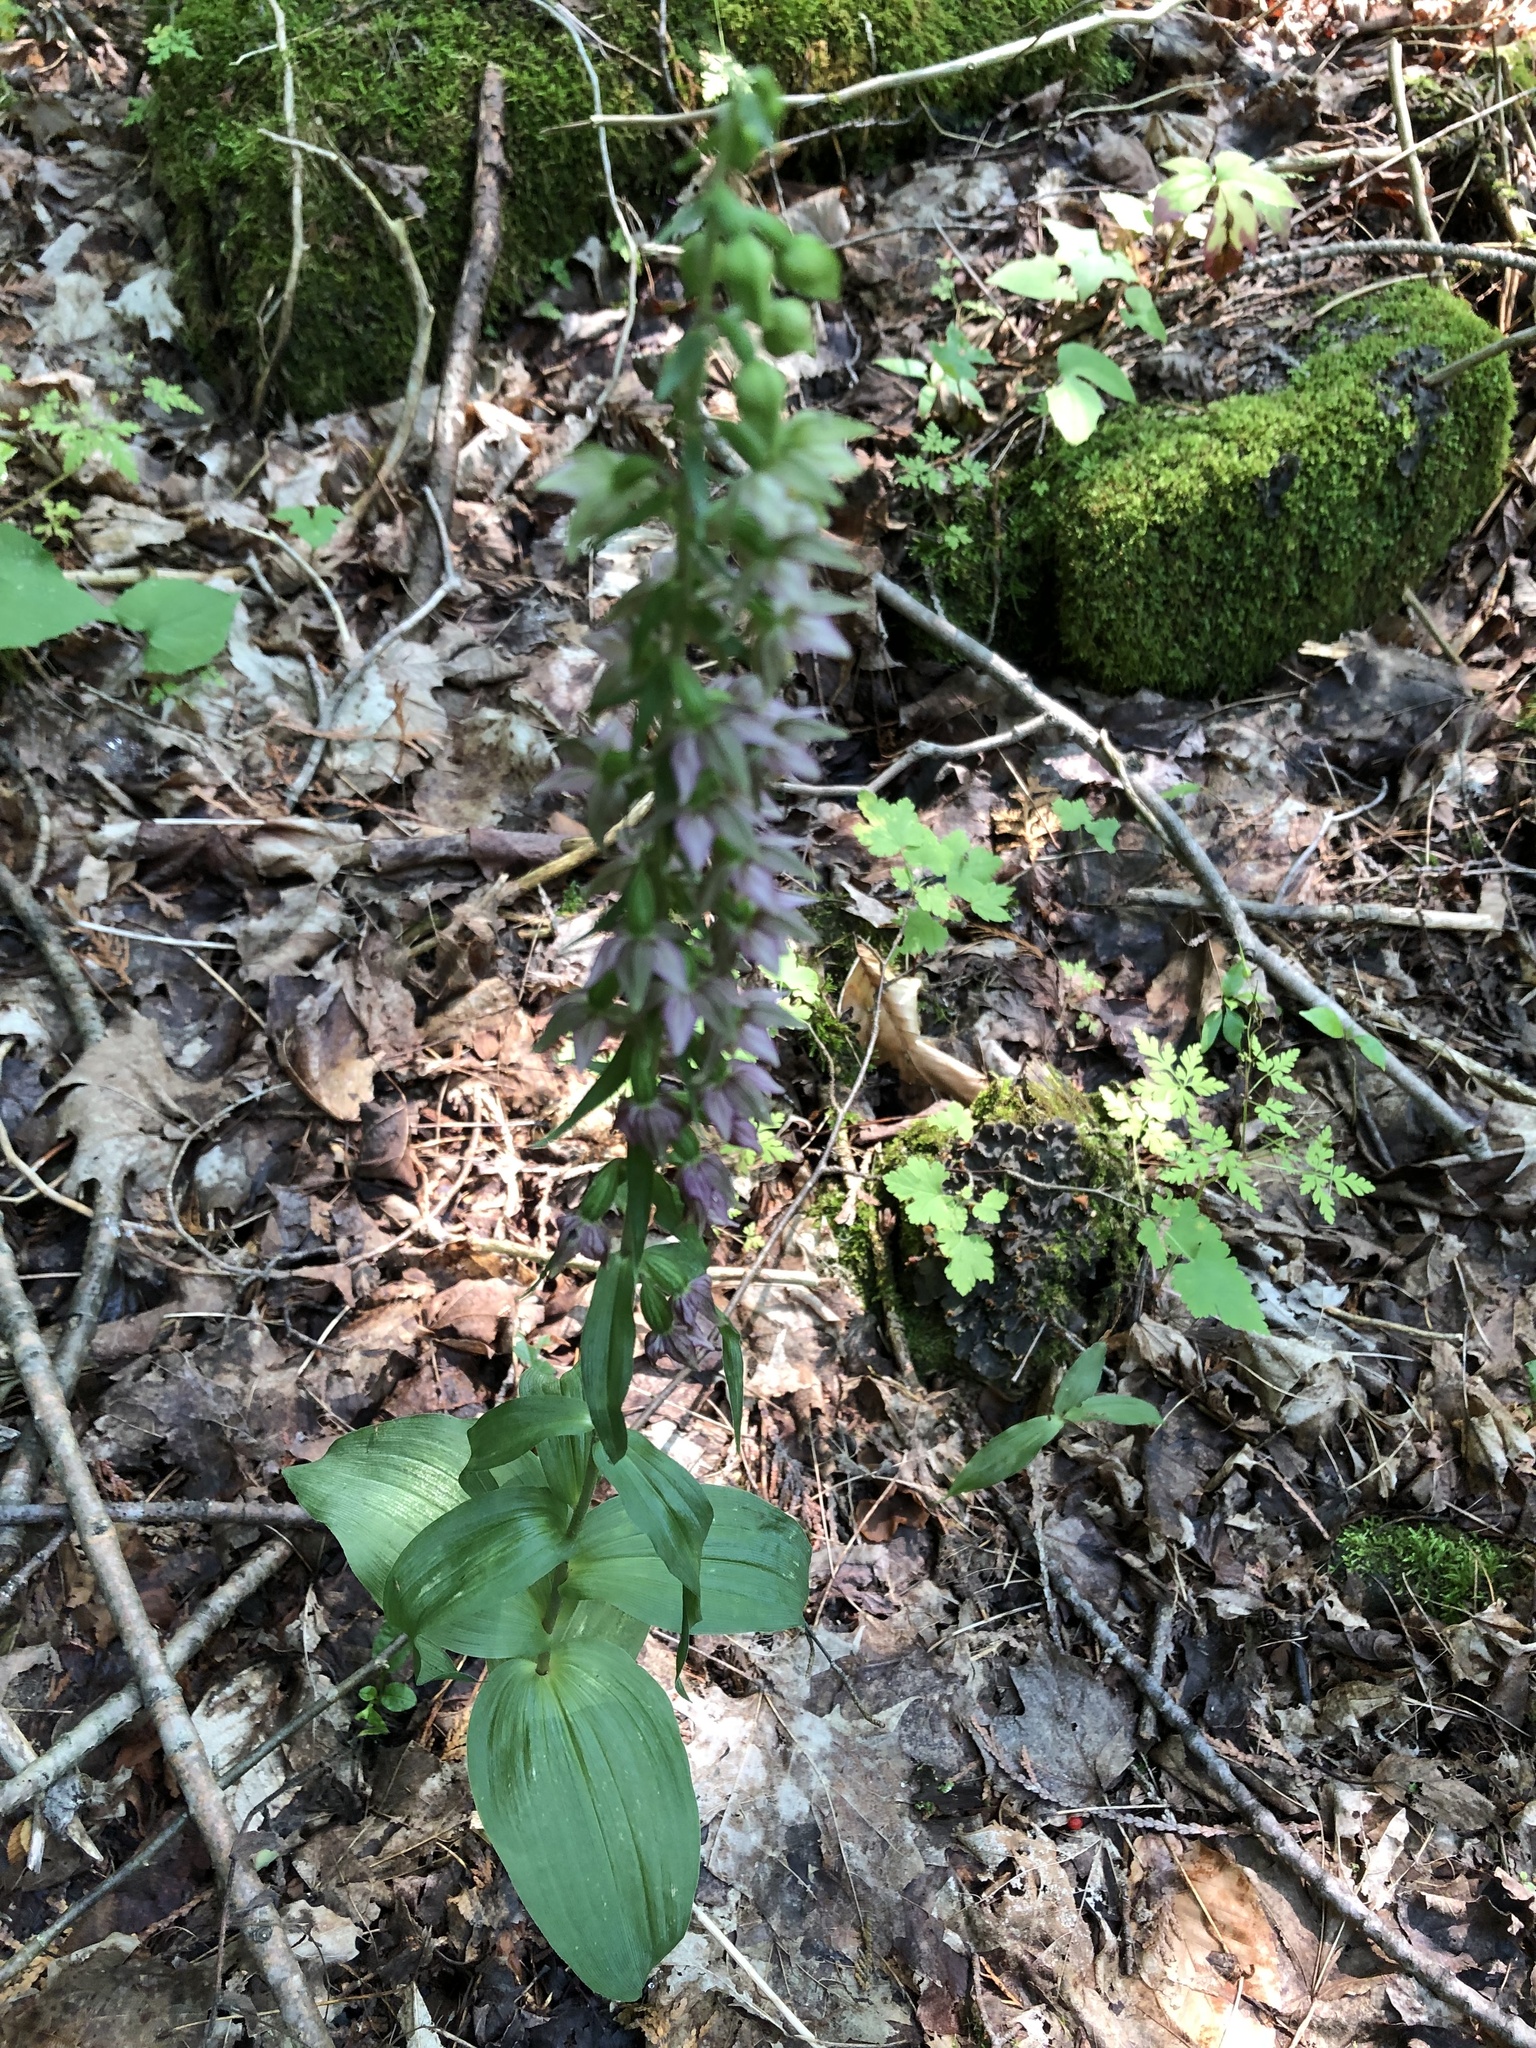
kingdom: Plantae
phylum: Tracheophyta
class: Liliopsida
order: Asparagales
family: Orchidaceae
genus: Epipactis
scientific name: Epipactis helleborine
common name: Broad-leaved helleborine
